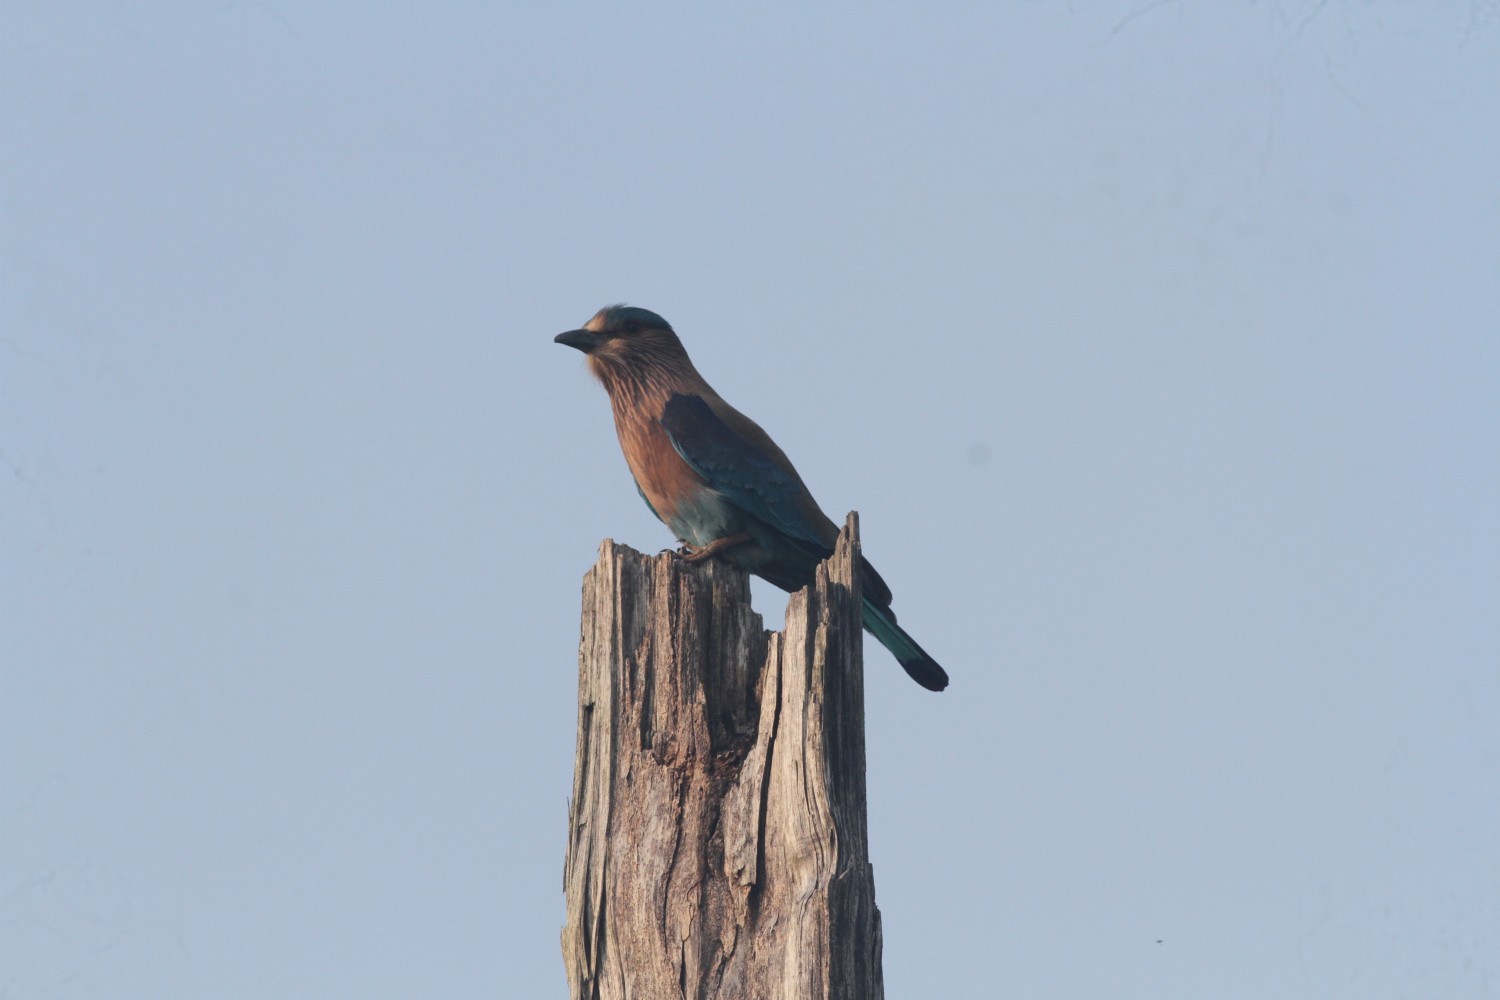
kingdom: Animalia
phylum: Chordata
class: Aves
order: Coraciiformes
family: Coraciidae
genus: Coracias
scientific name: Coracias benghalensis
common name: Indian roller
